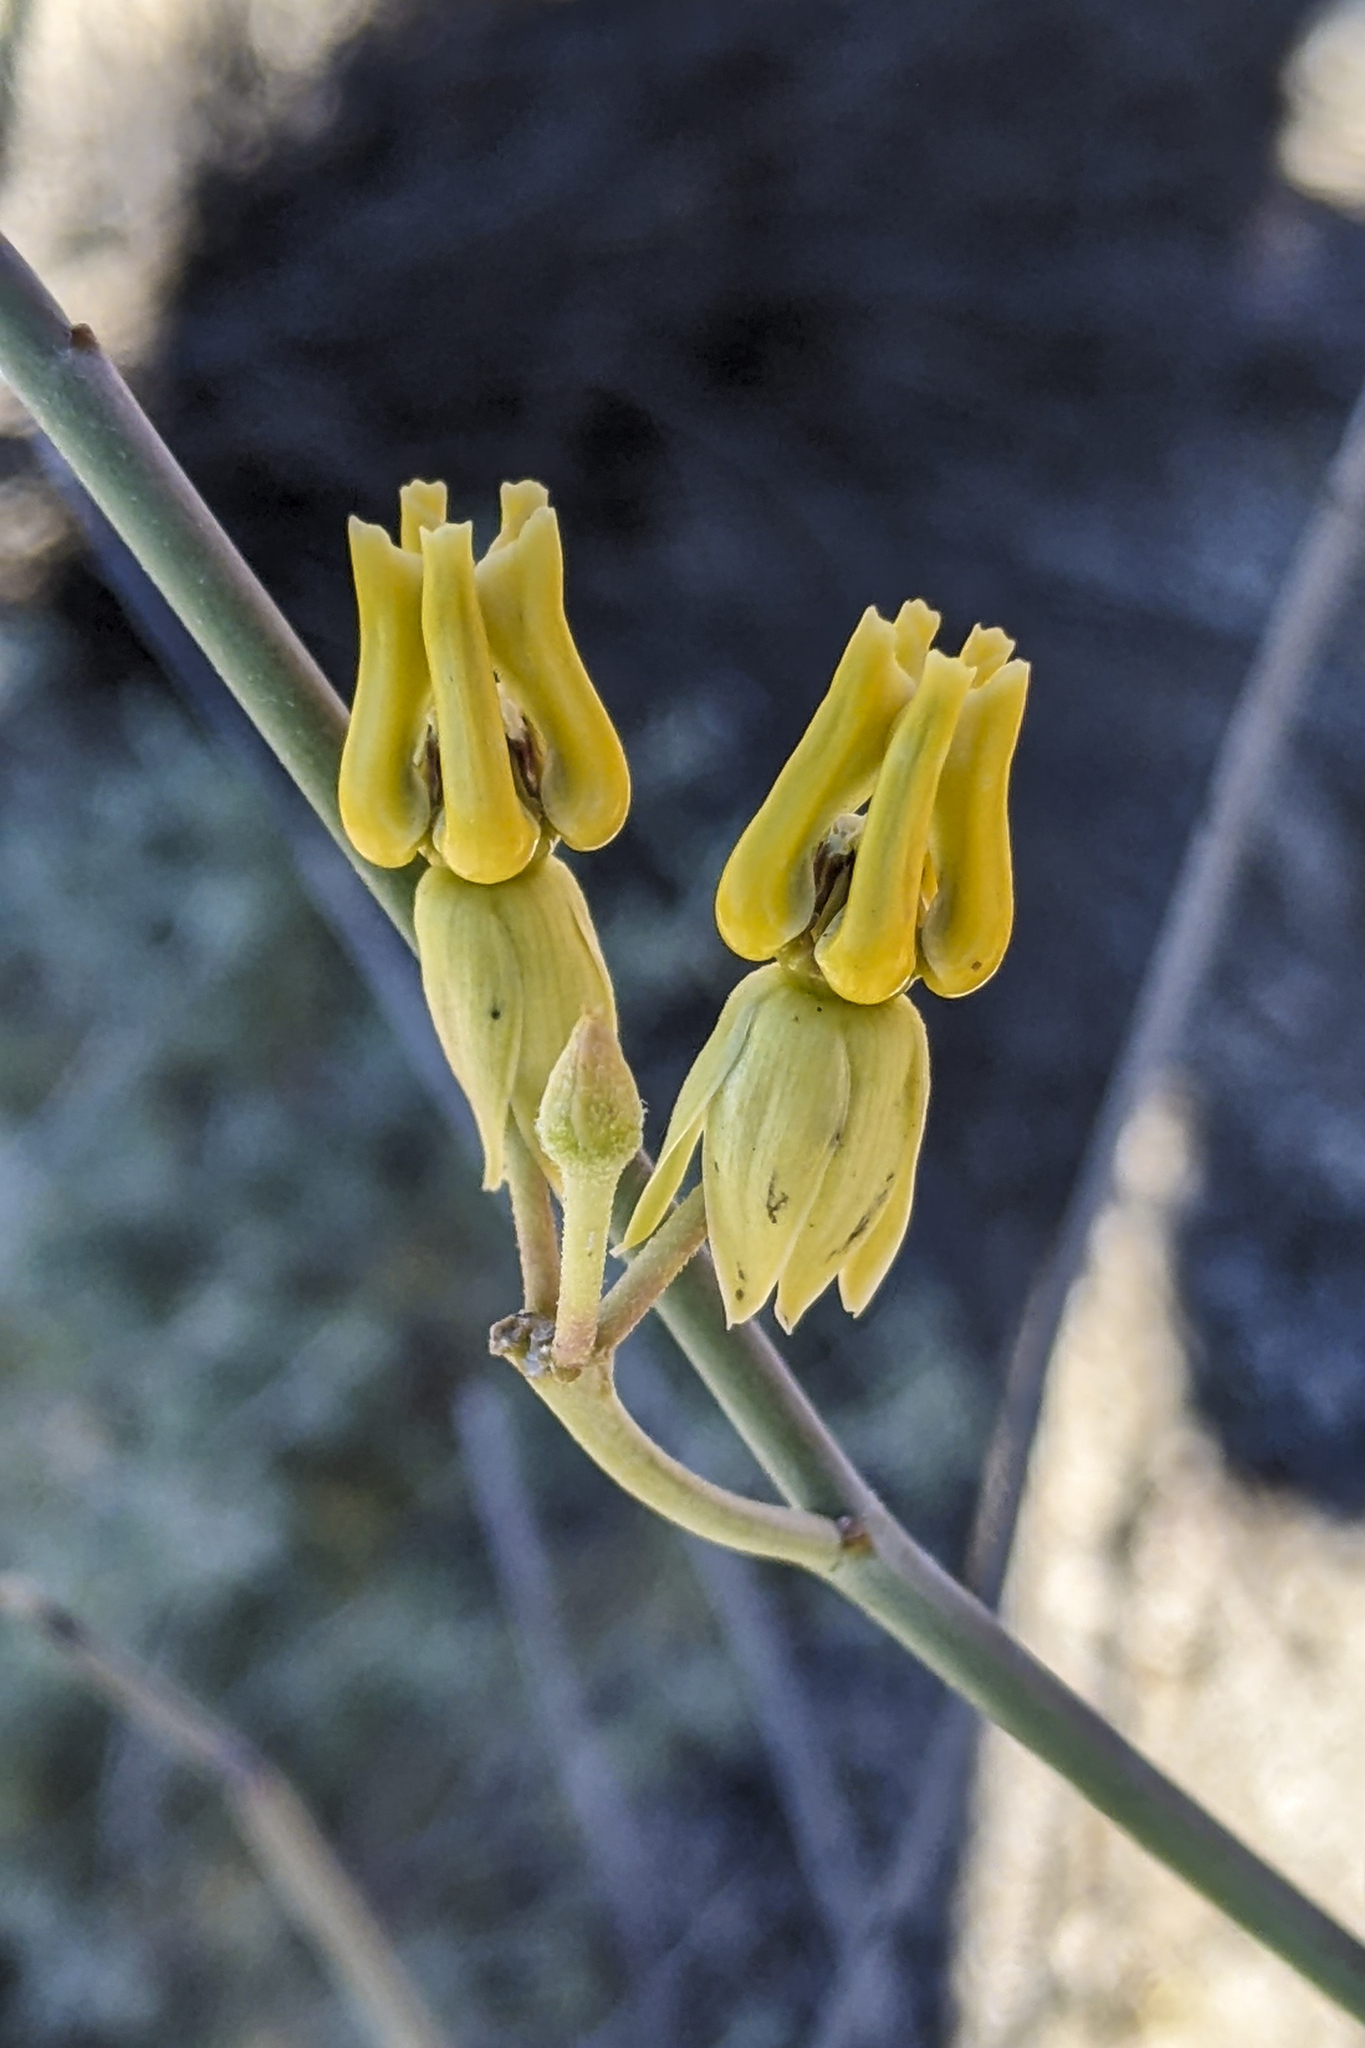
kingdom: Plantae
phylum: Tracheophyta
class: Magnoliopsida
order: Gentianales
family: Apocynaceae
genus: Asclepias
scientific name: Asclepias subulata
